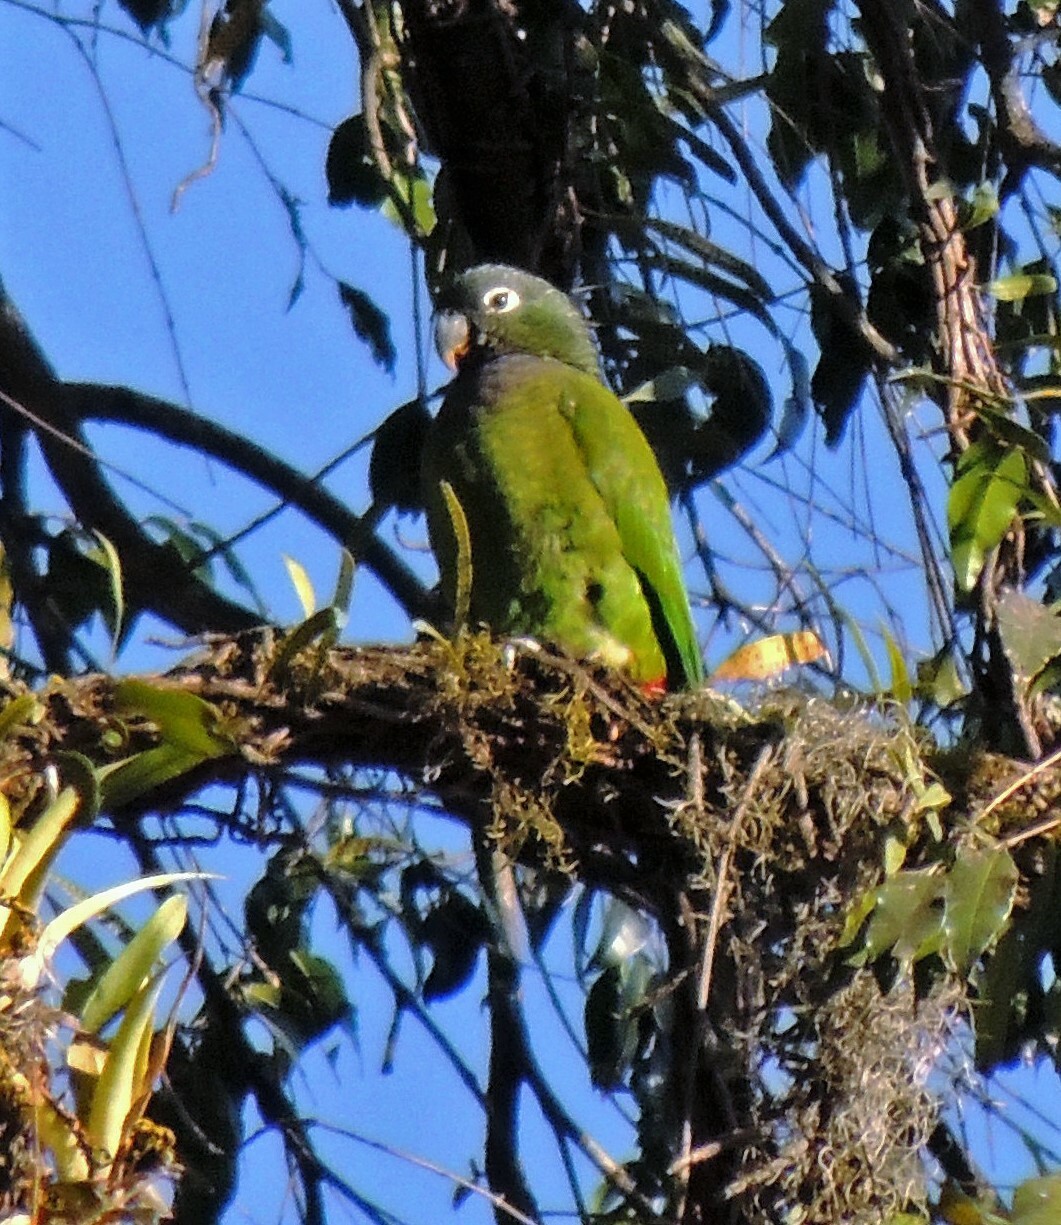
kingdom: Animalia
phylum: Chordata
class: Aves
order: Psittaciformes
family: Psittacidae
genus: Pionus
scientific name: Pionus maximiliani
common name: Scaly-headed parrot
